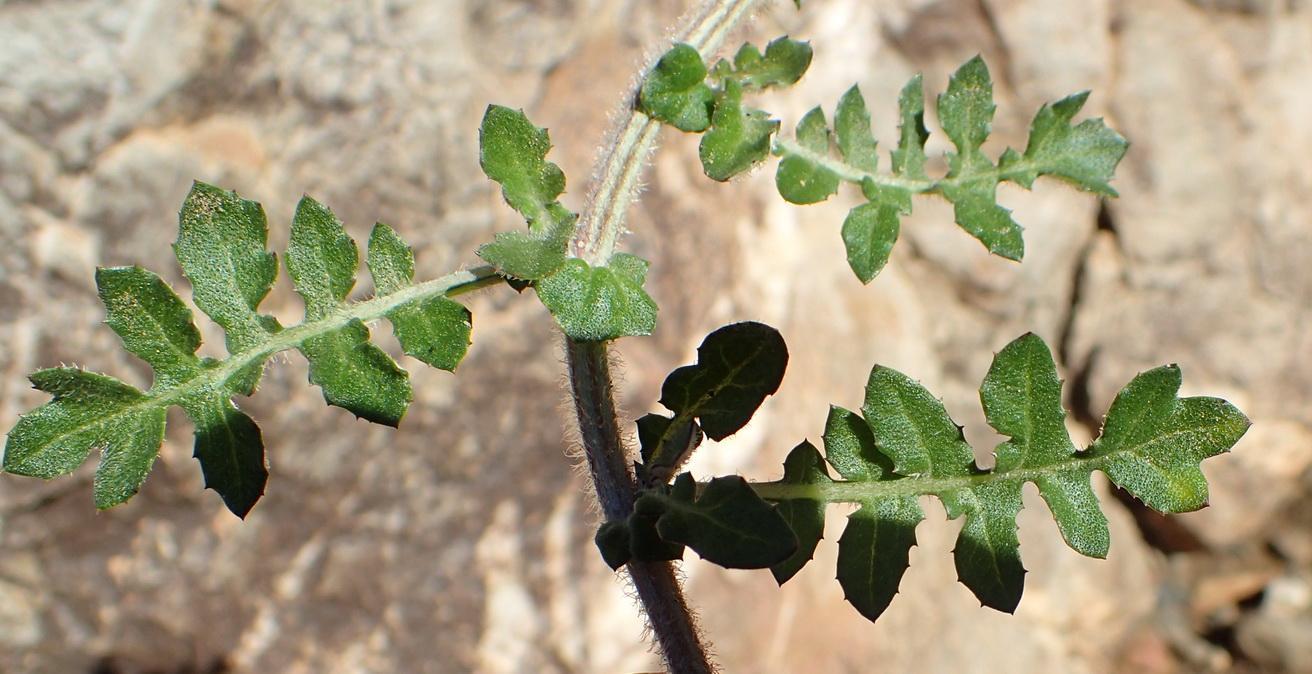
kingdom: Plantae
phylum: Tracheophyta
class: Magnoliopsida
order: Asterales
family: Asteraceae
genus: Arctotheca
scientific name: Arctotheca prostrata
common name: Capeweed
